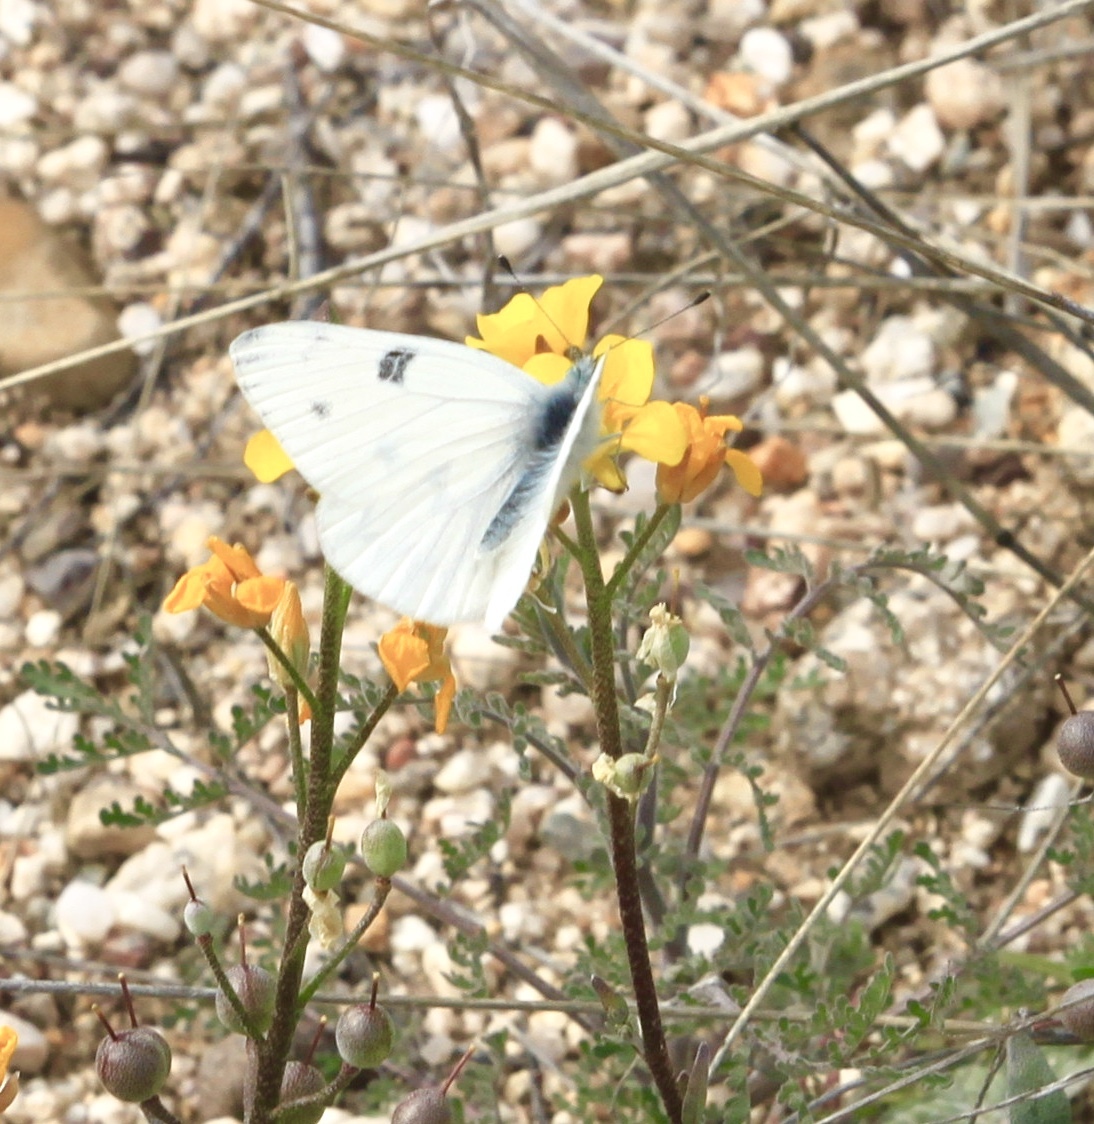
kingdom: Animalia
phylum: Arthropoda
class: Insecta
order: Lepidoptera
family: Pieridae
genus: Pontia
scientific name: Pontia protodice
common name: Checkered white
